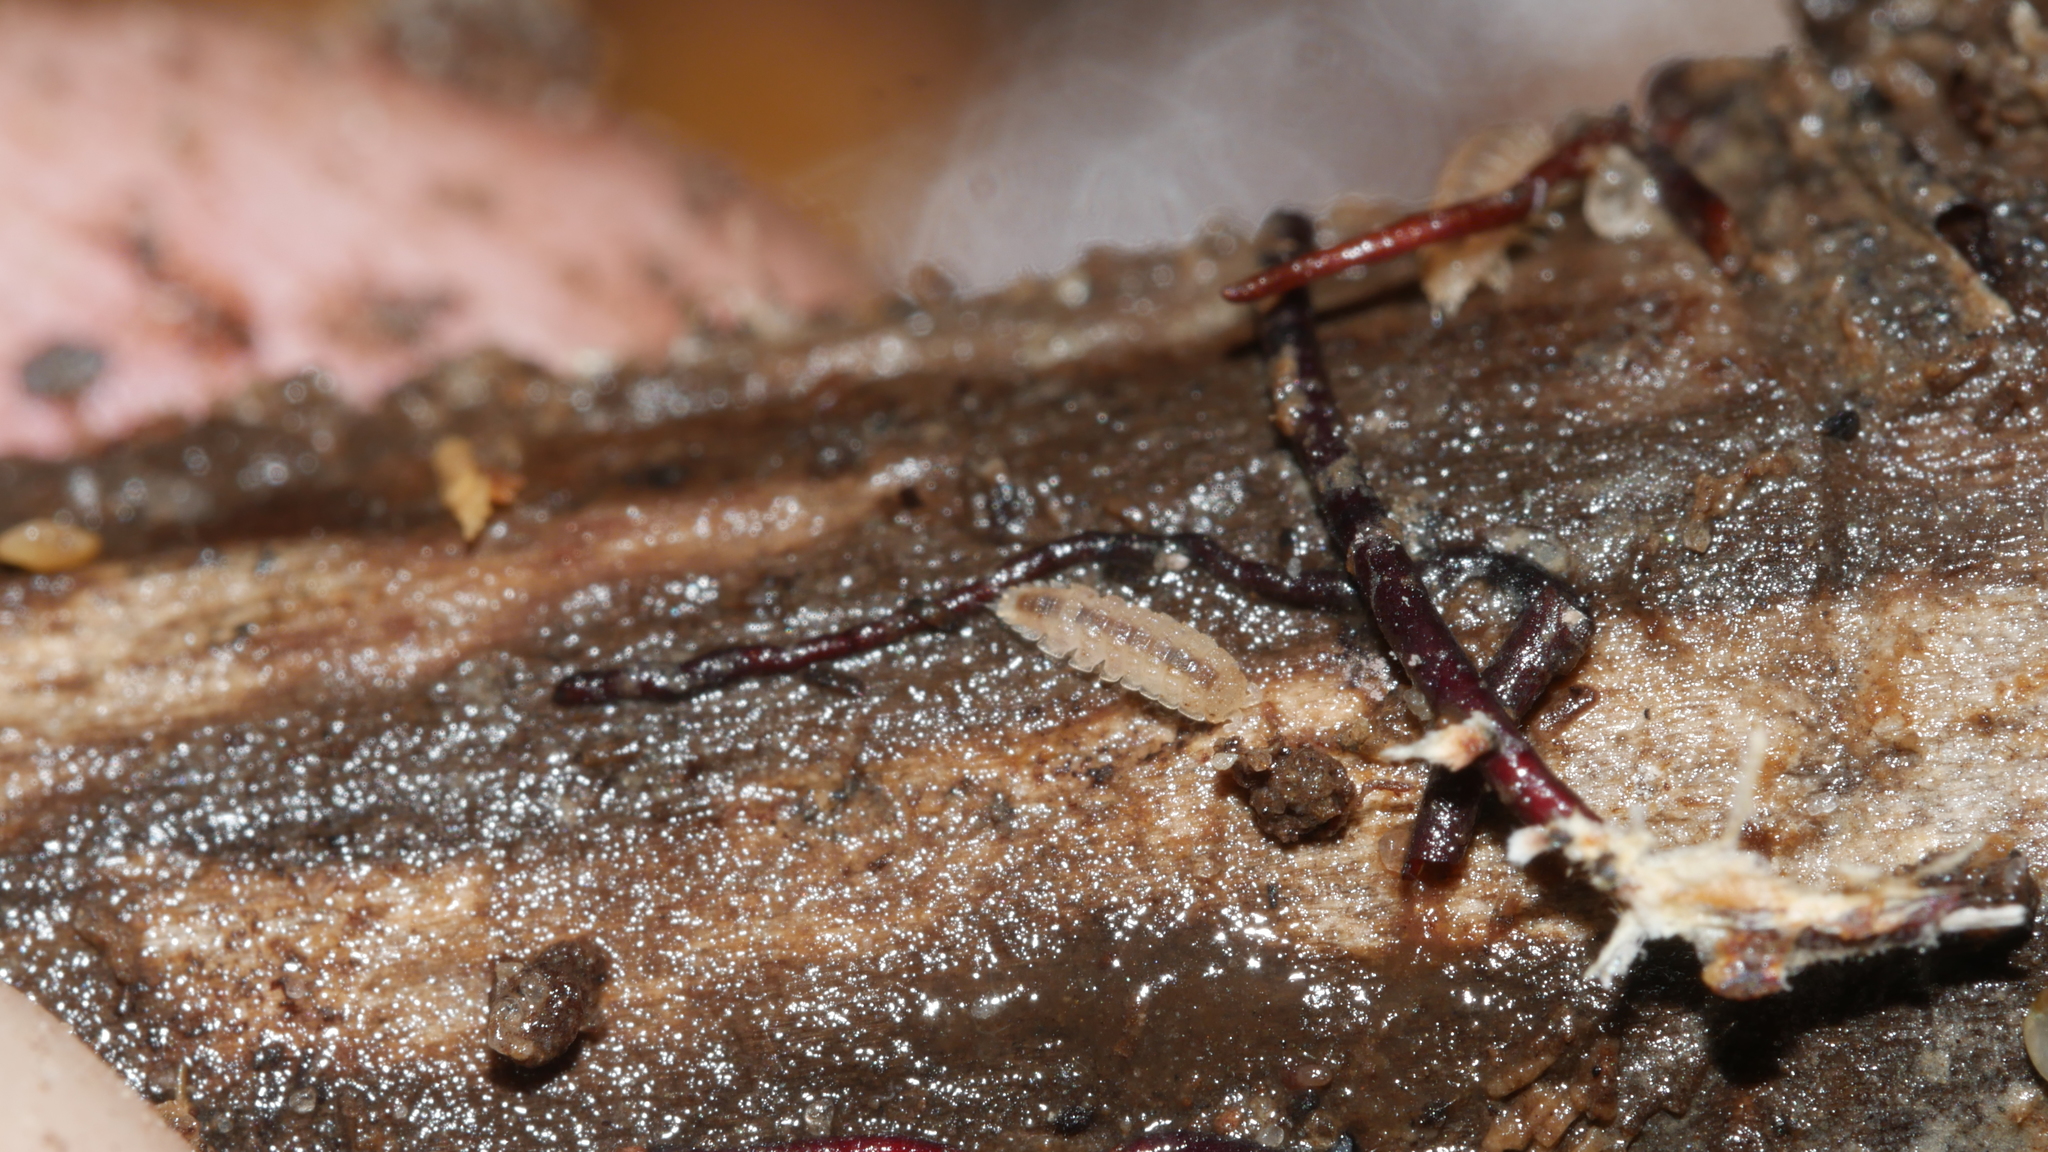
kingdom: Animalia
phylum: Arthropoda
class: Malacostraca
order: Isopoda
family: Trichoniscidae
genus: Haplophthalmus
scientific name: Haplophthalmus danicus
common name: Pillbug
